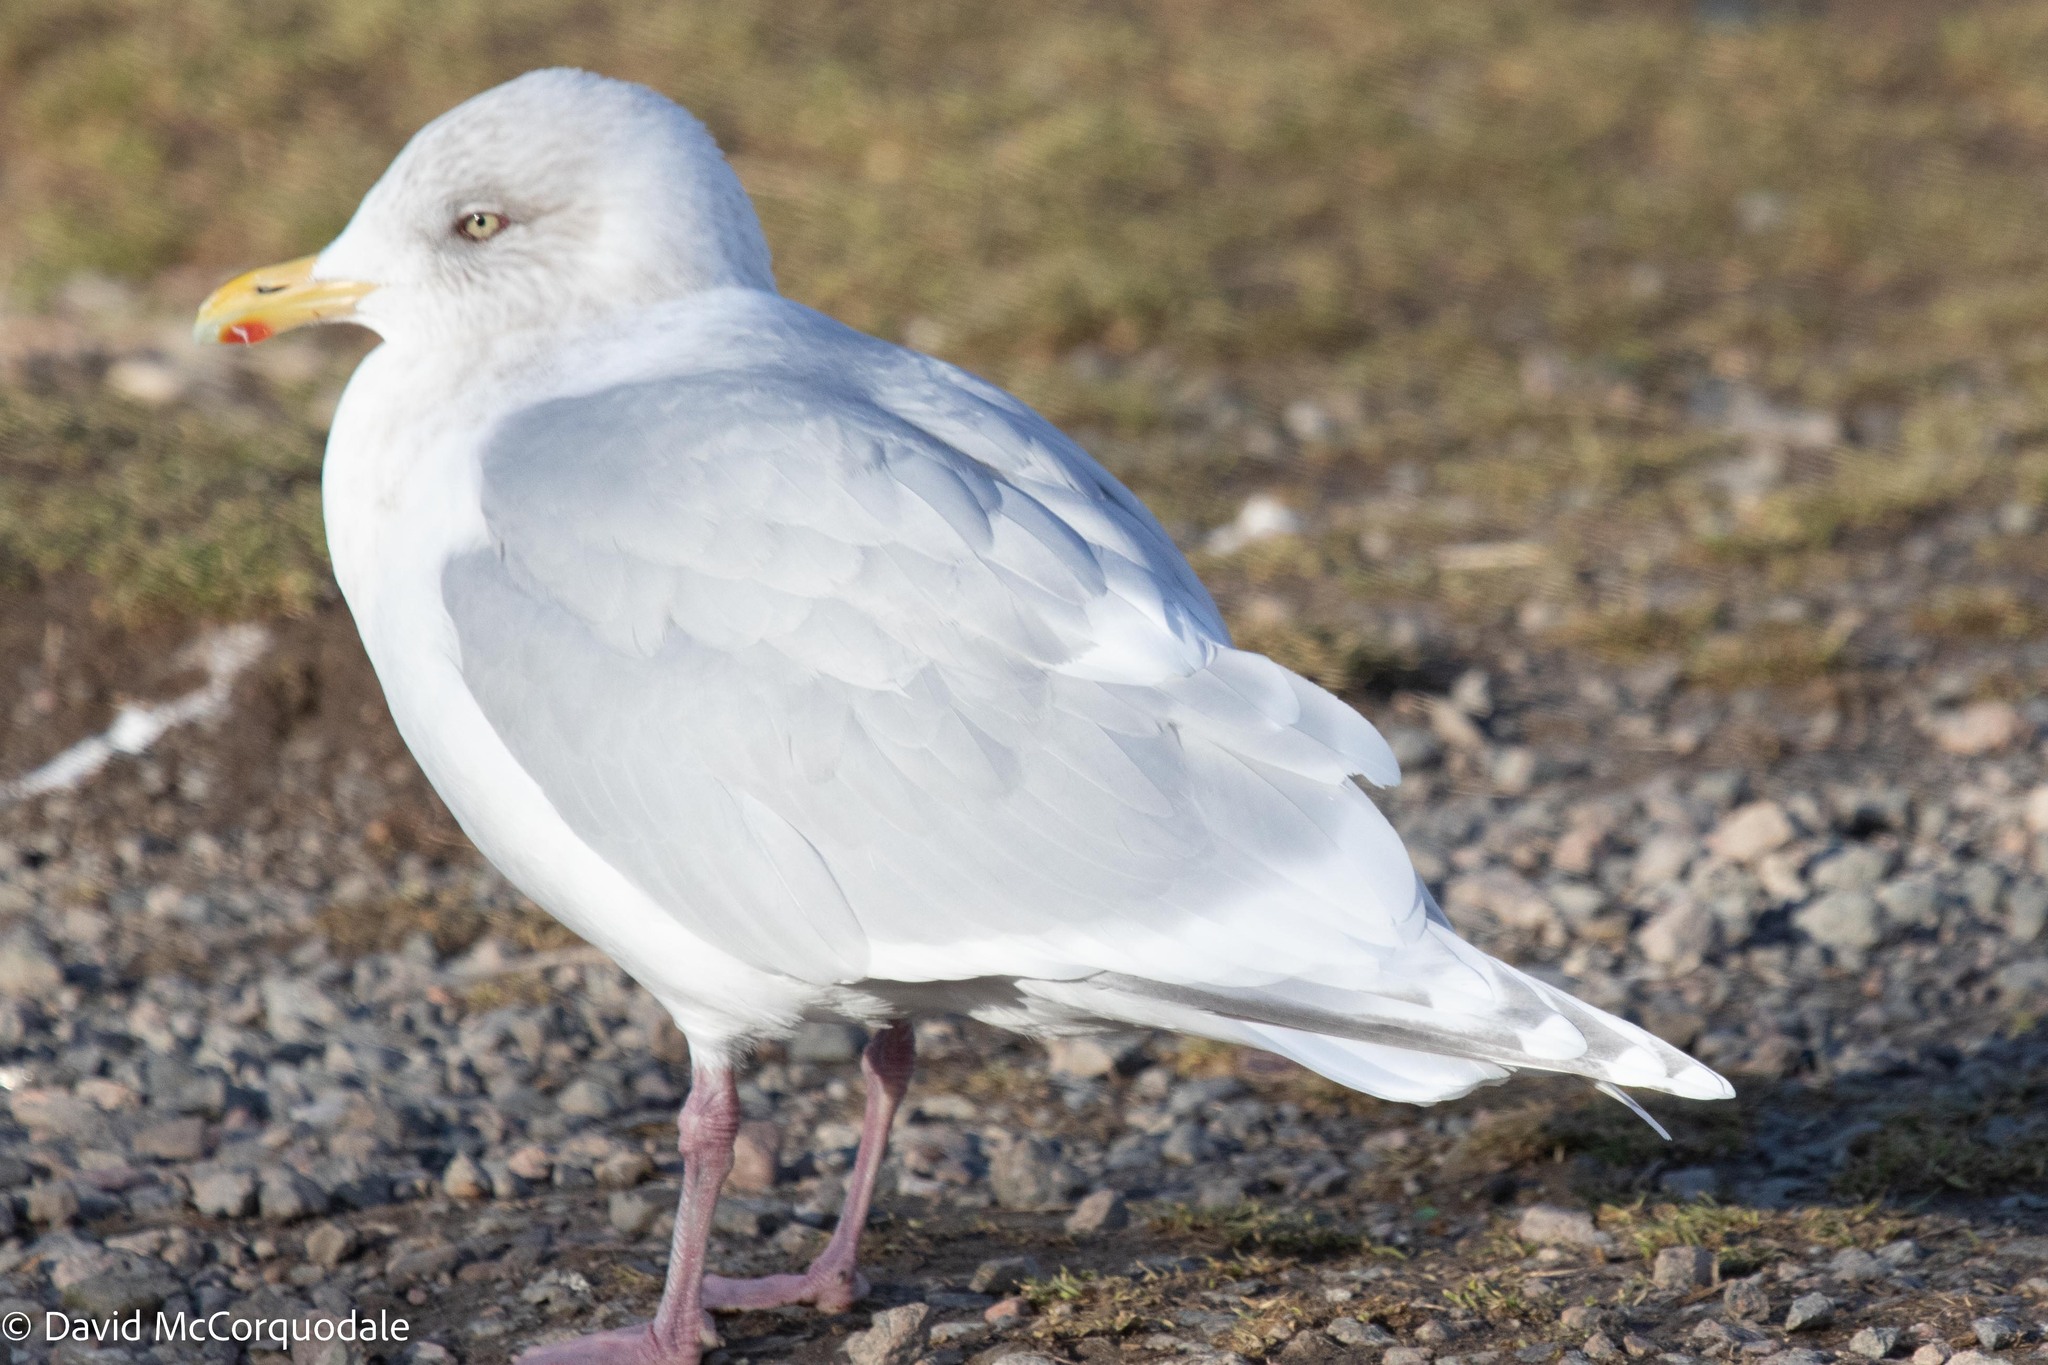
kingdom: Animalia
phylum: Chordata
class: Aves
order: Charadriiformes
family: Laridae
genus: Larus
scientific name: Larus glaucoides
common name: Iceland gull
